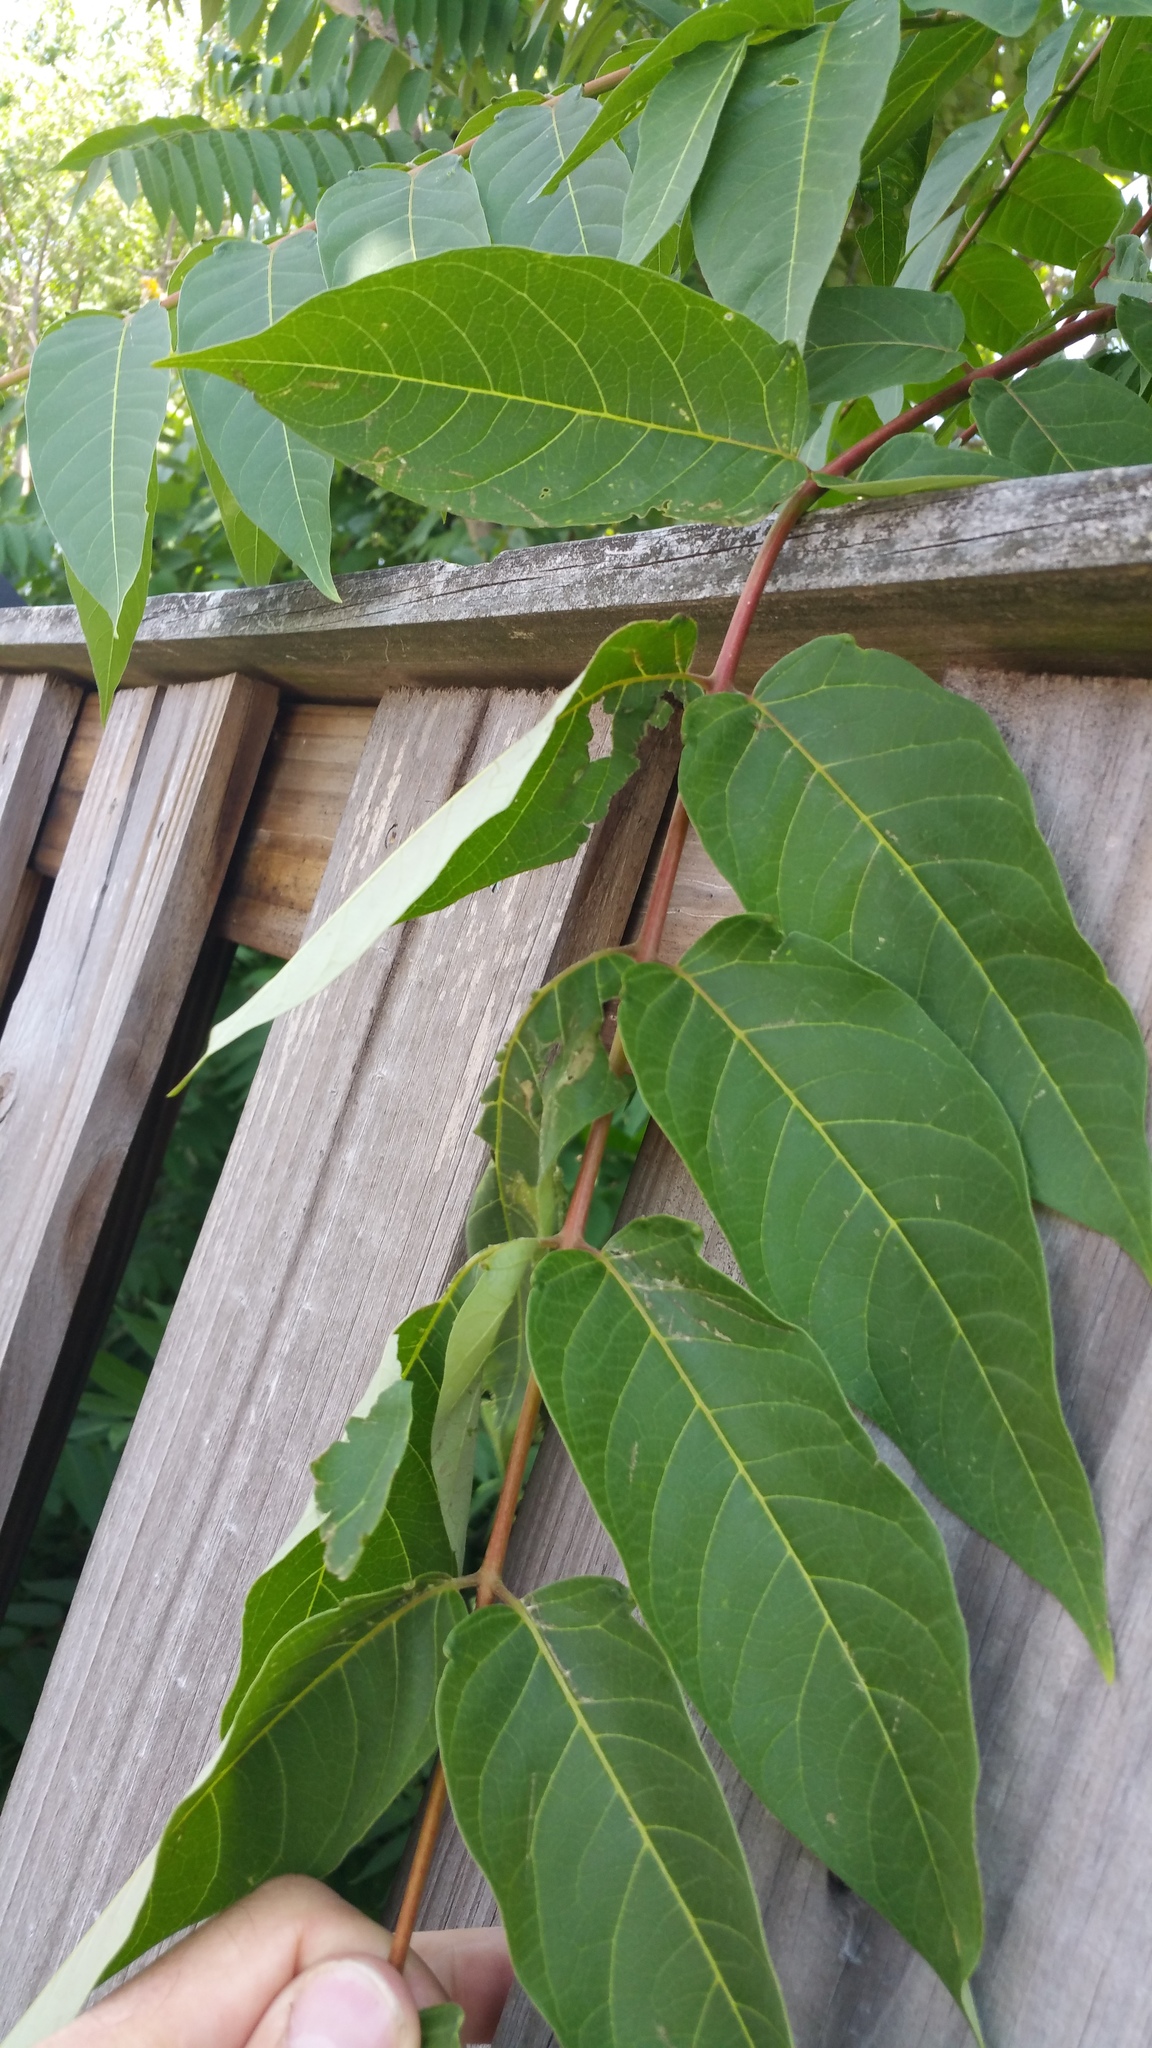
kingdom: Plantae
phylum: Tracheophyta
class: Magnoliopsida
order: Sapindales
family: Simaroubaceae
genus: Ailanthus
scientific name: Ailanthus altissima
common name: Tree-of-heaven
